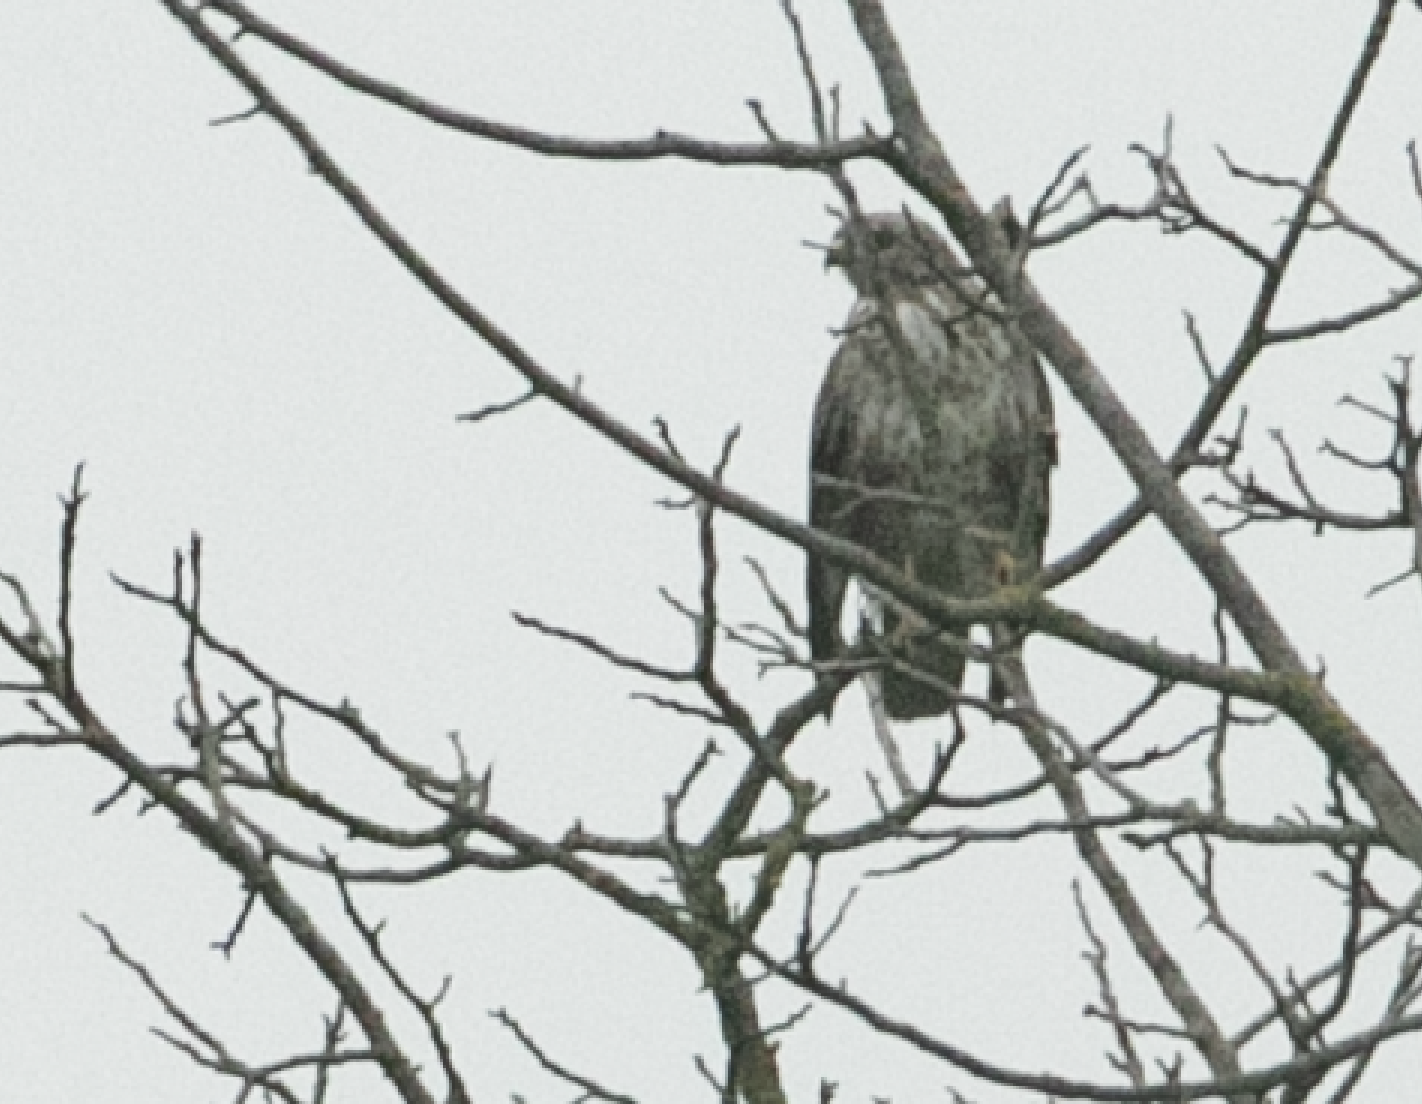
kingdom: Animalia
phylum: Chordata
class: Aves
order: Accipitriformes
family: Accipitridae
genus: Buteo
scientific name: Buteo buteo
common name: Common buzzard
